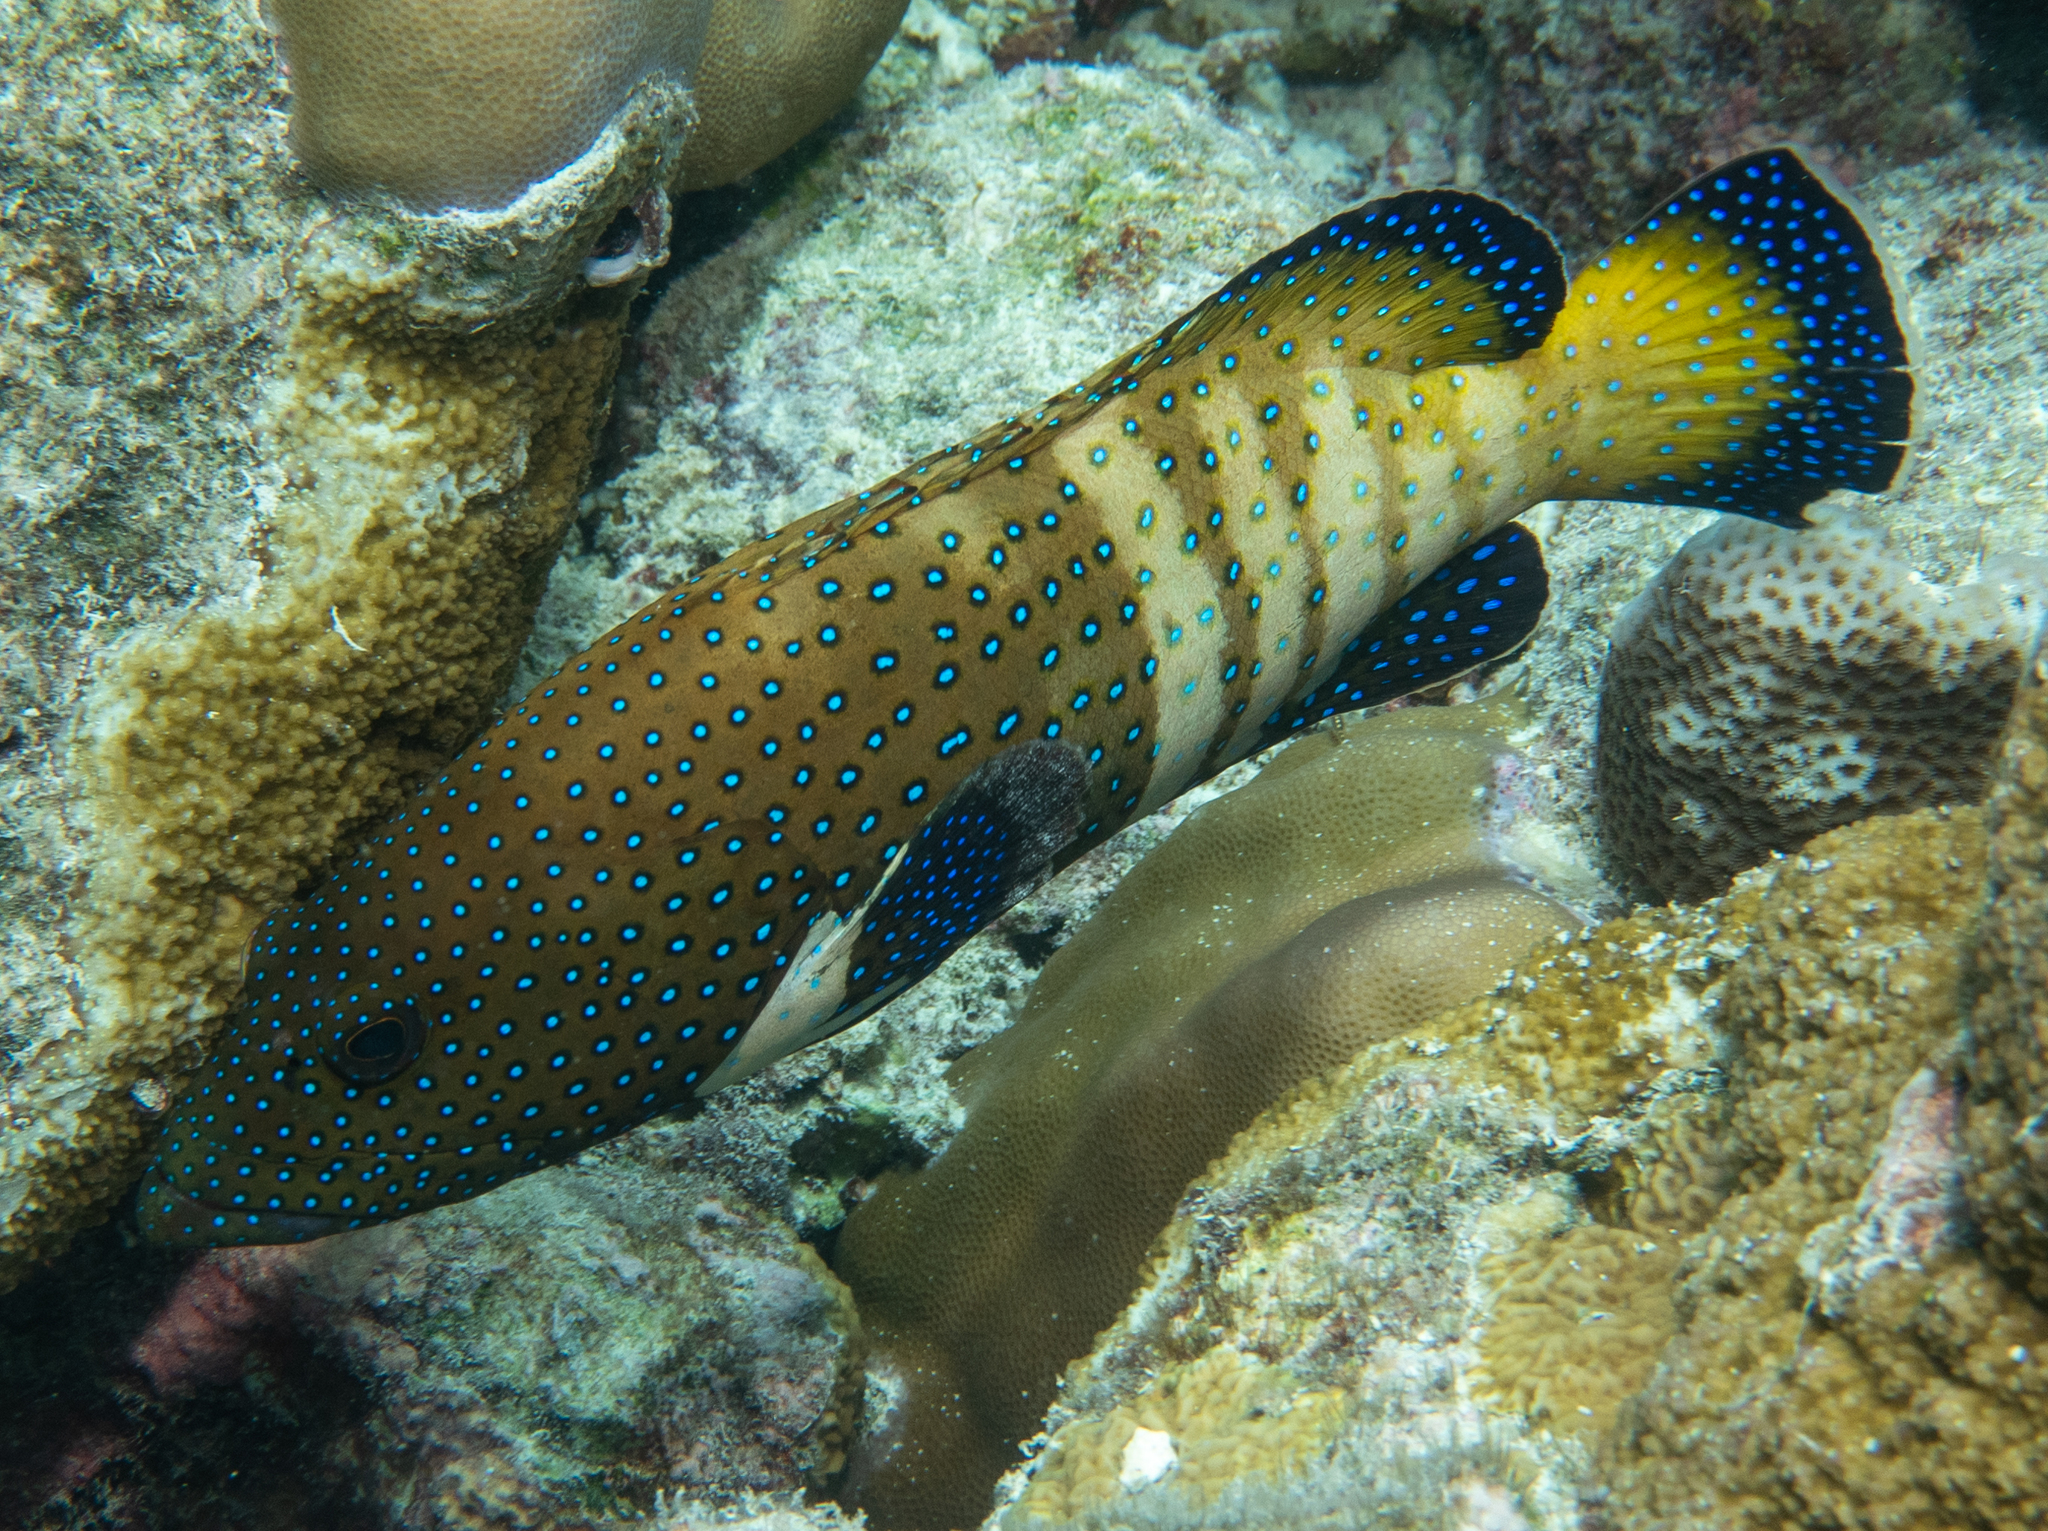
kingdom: Animalia
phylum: Chordata
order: Perciformes
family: Serranidae
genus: Cephalopholis
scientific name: Cephalopholis argus
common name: Peacock grouper
